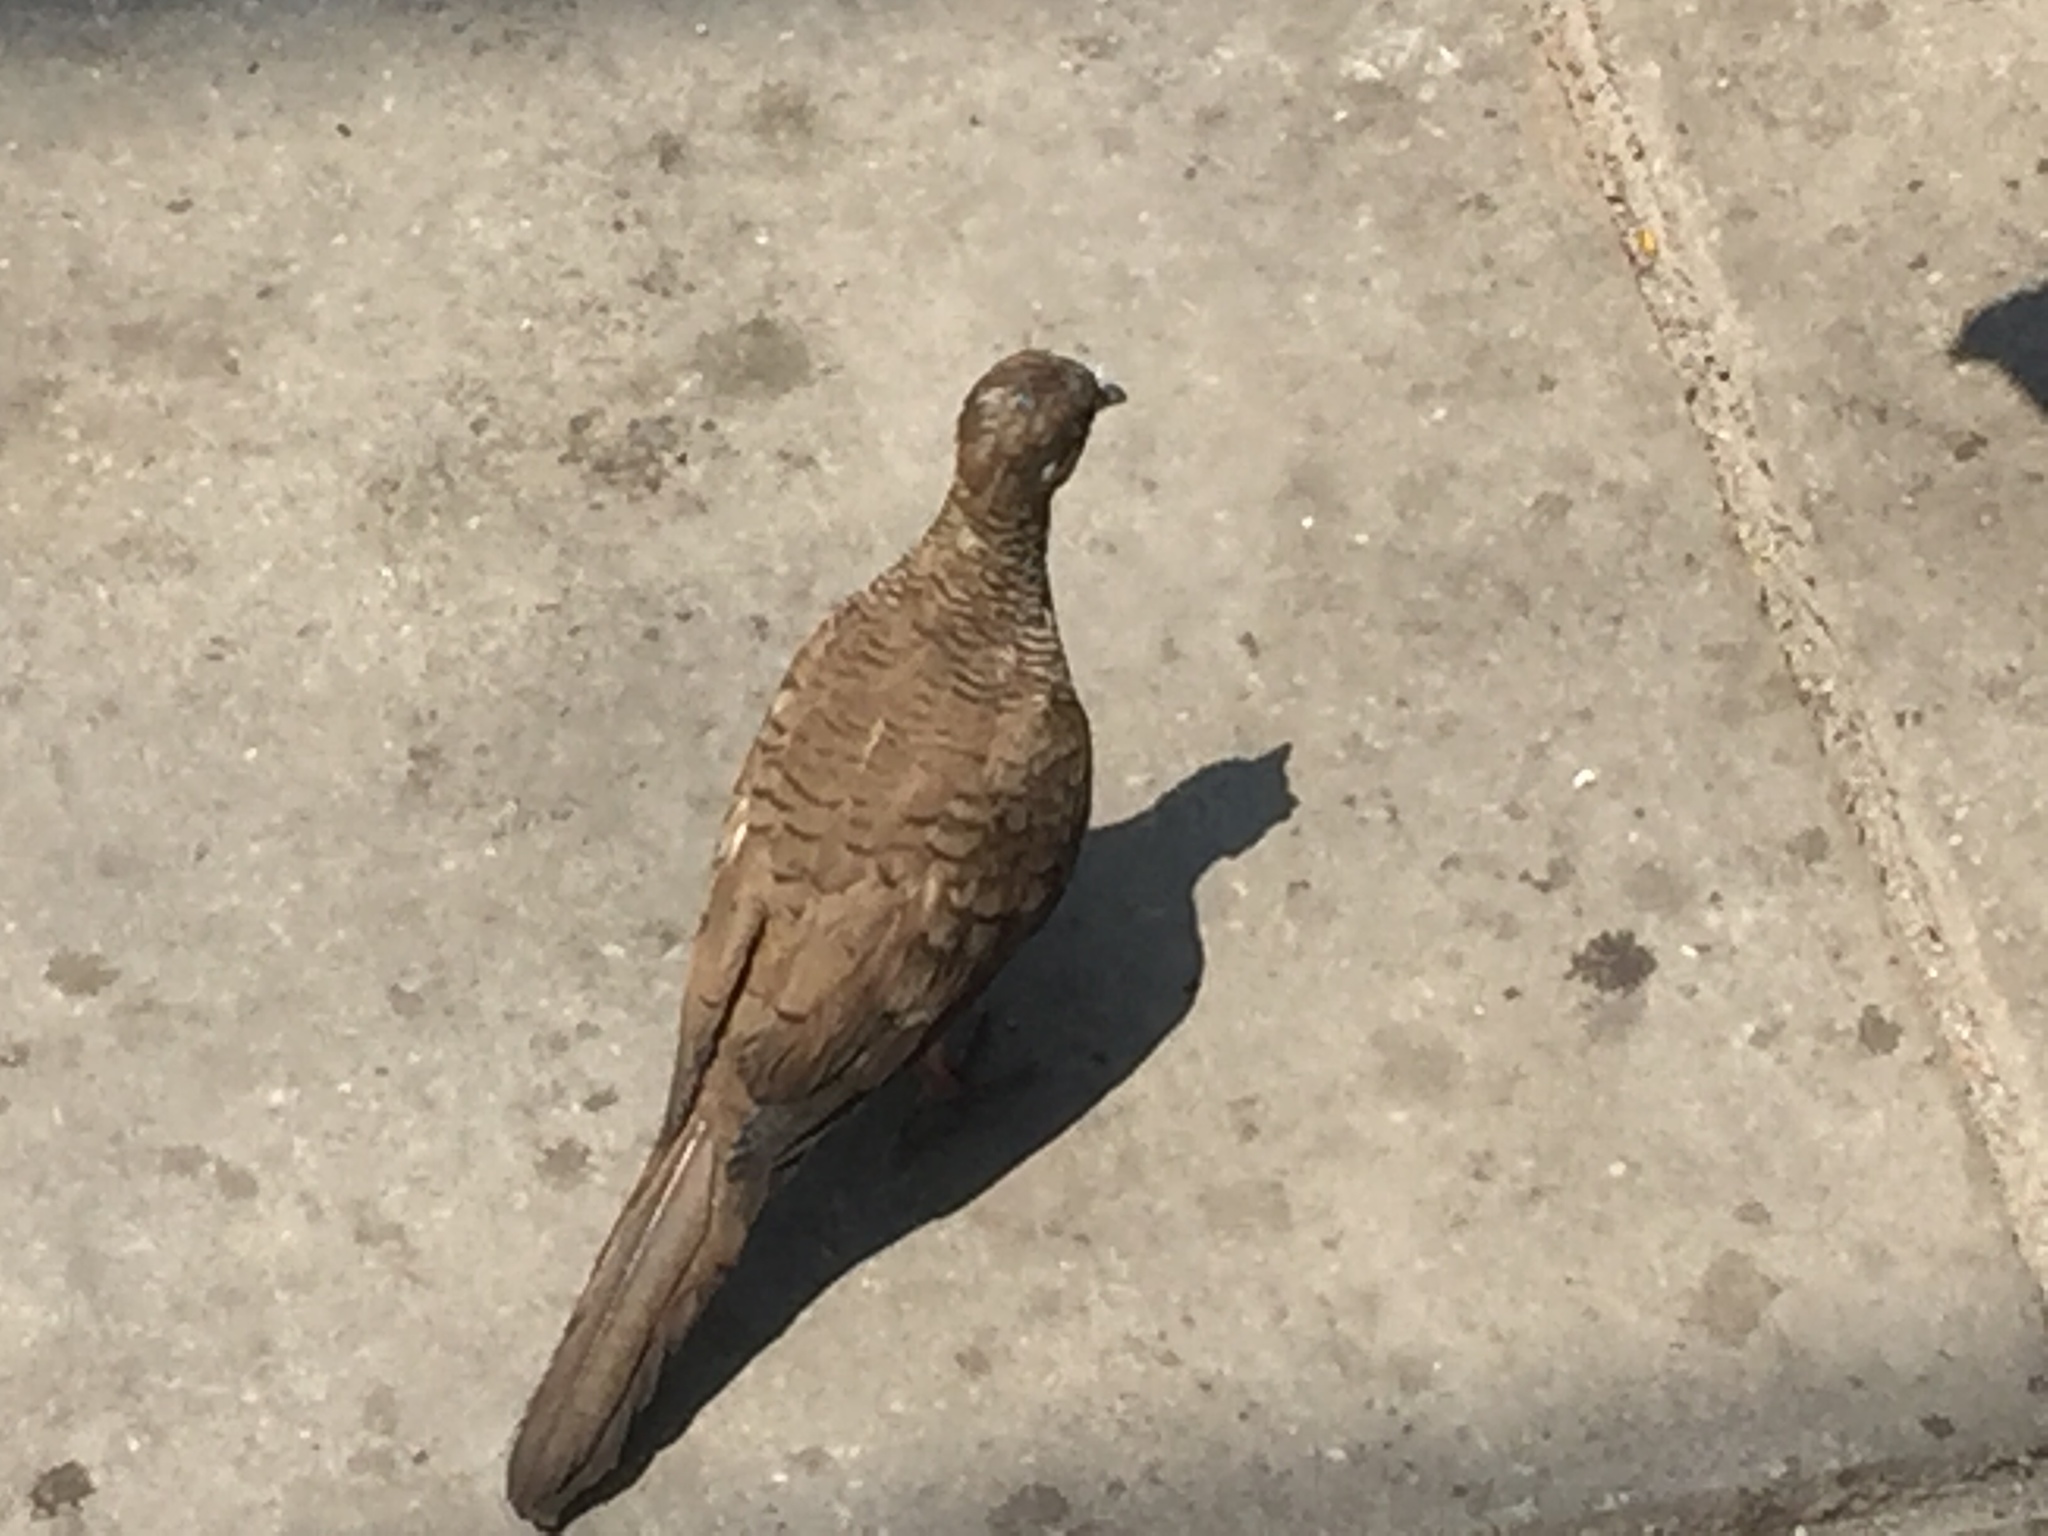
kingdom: Animalia
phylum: Chordata
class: Aves
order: Columbiformes
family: Columbidae
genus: Geopelia
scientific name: Geopelia striata
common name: Zebra dove
